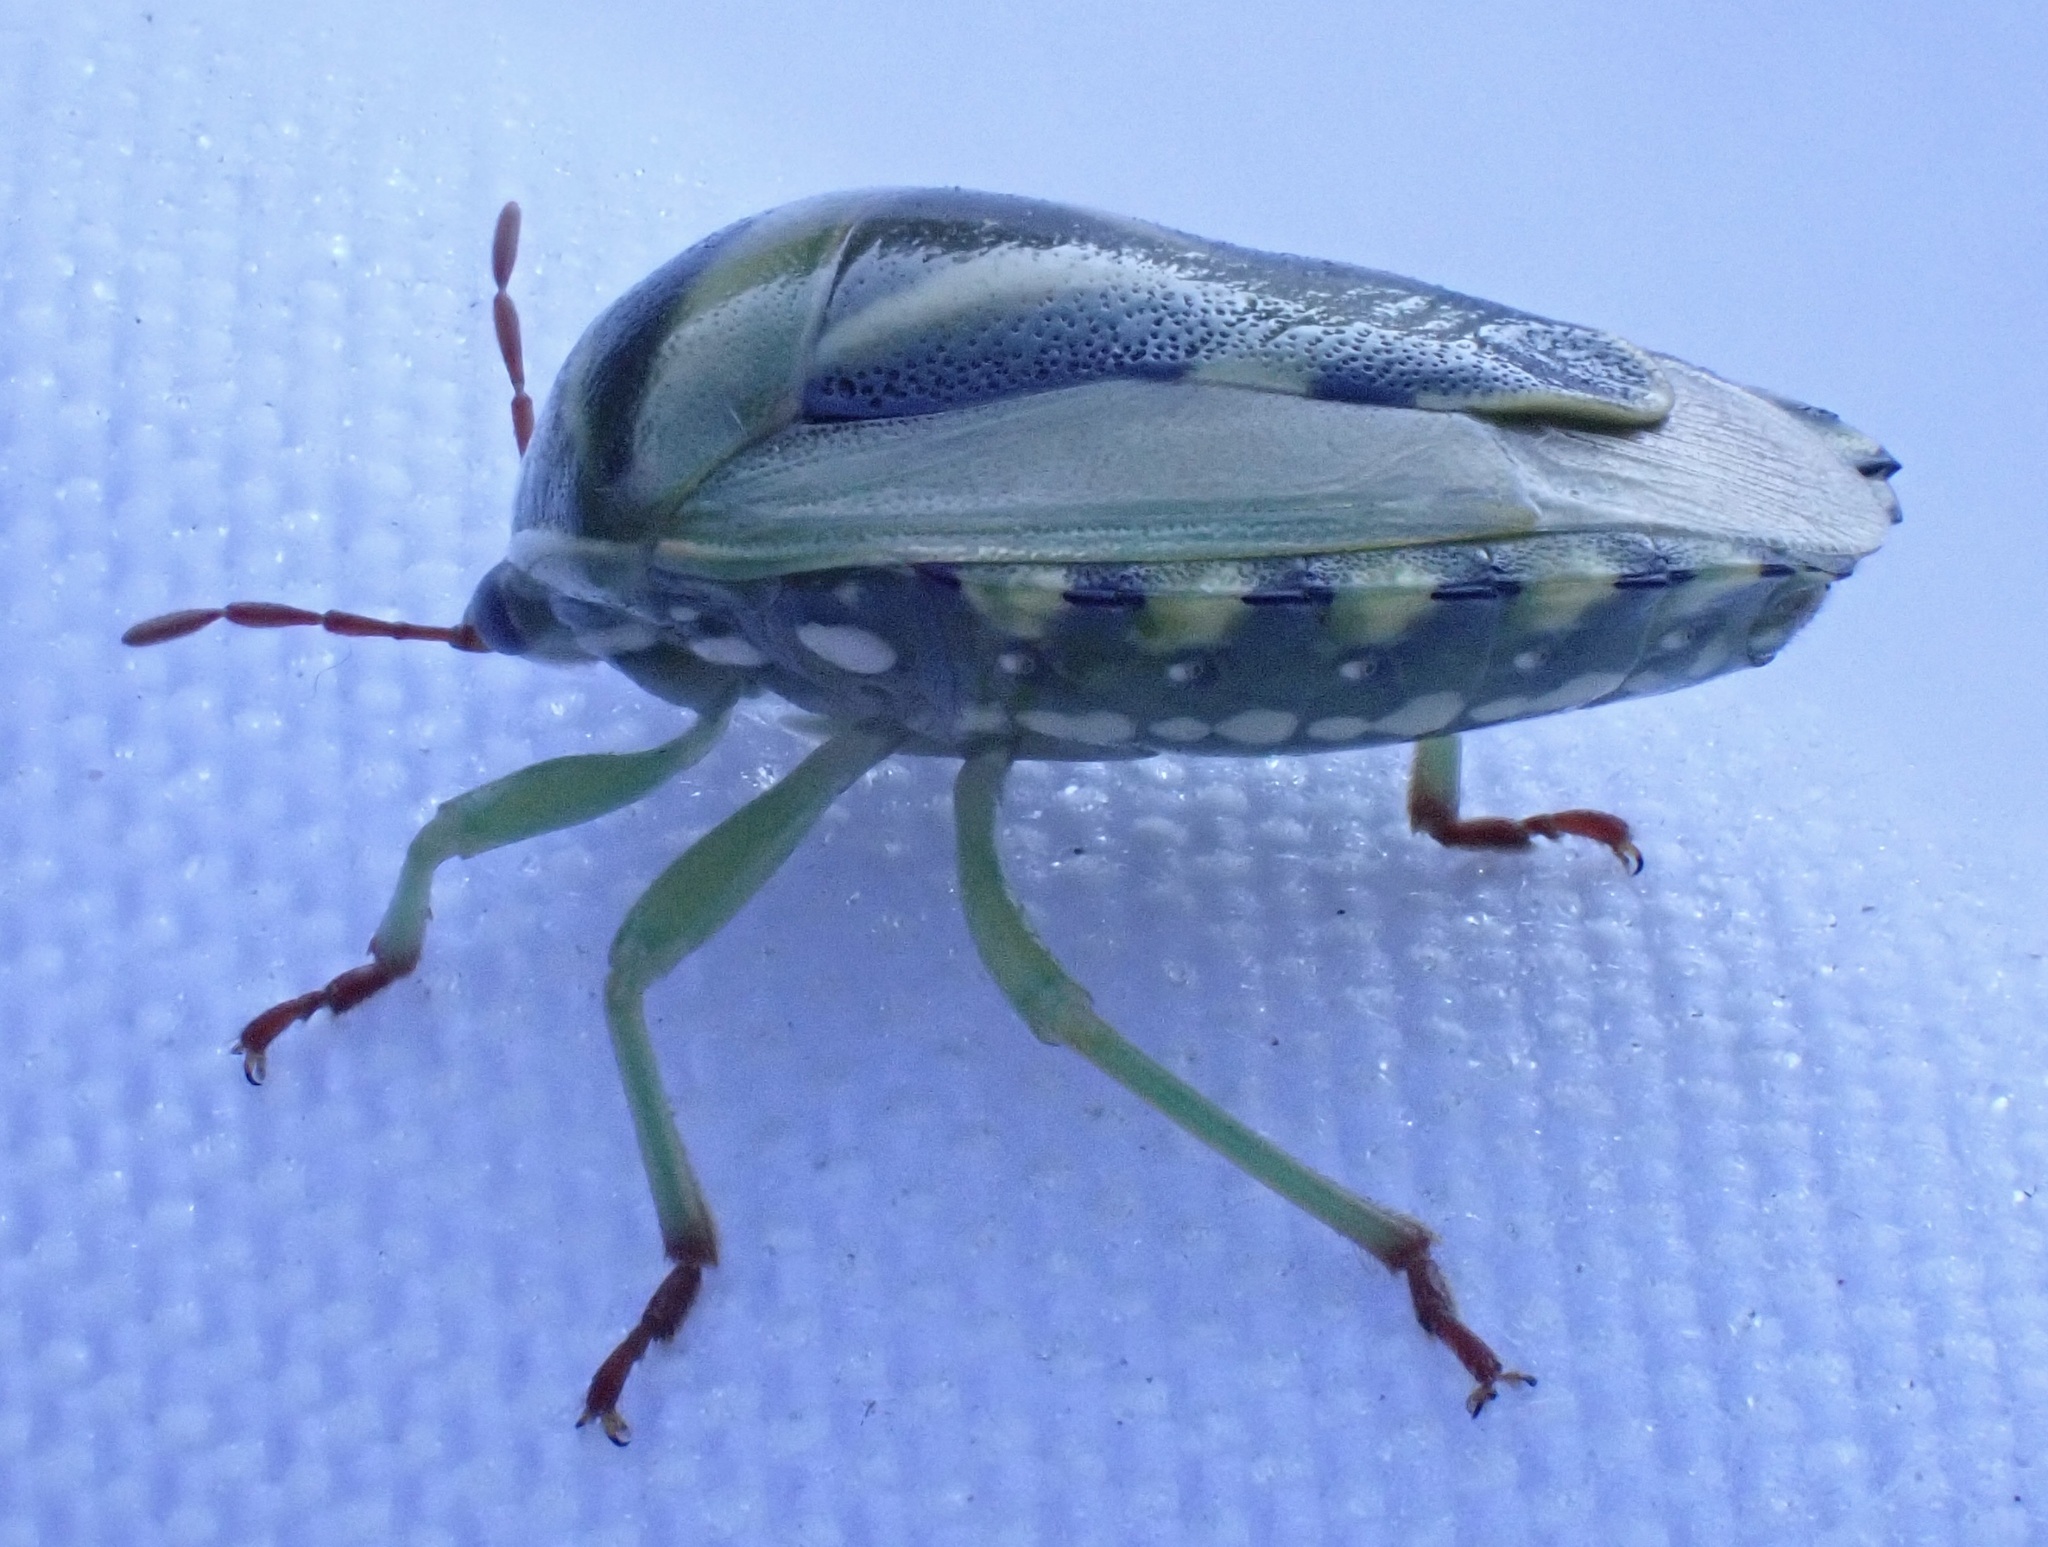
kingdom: Animalia
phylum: Arthropoda
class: Insecta
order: Hemiptera
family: Acanthosomatidae
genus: Lindbergicoris
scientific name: Lindbergicoris Platacantha lutea
